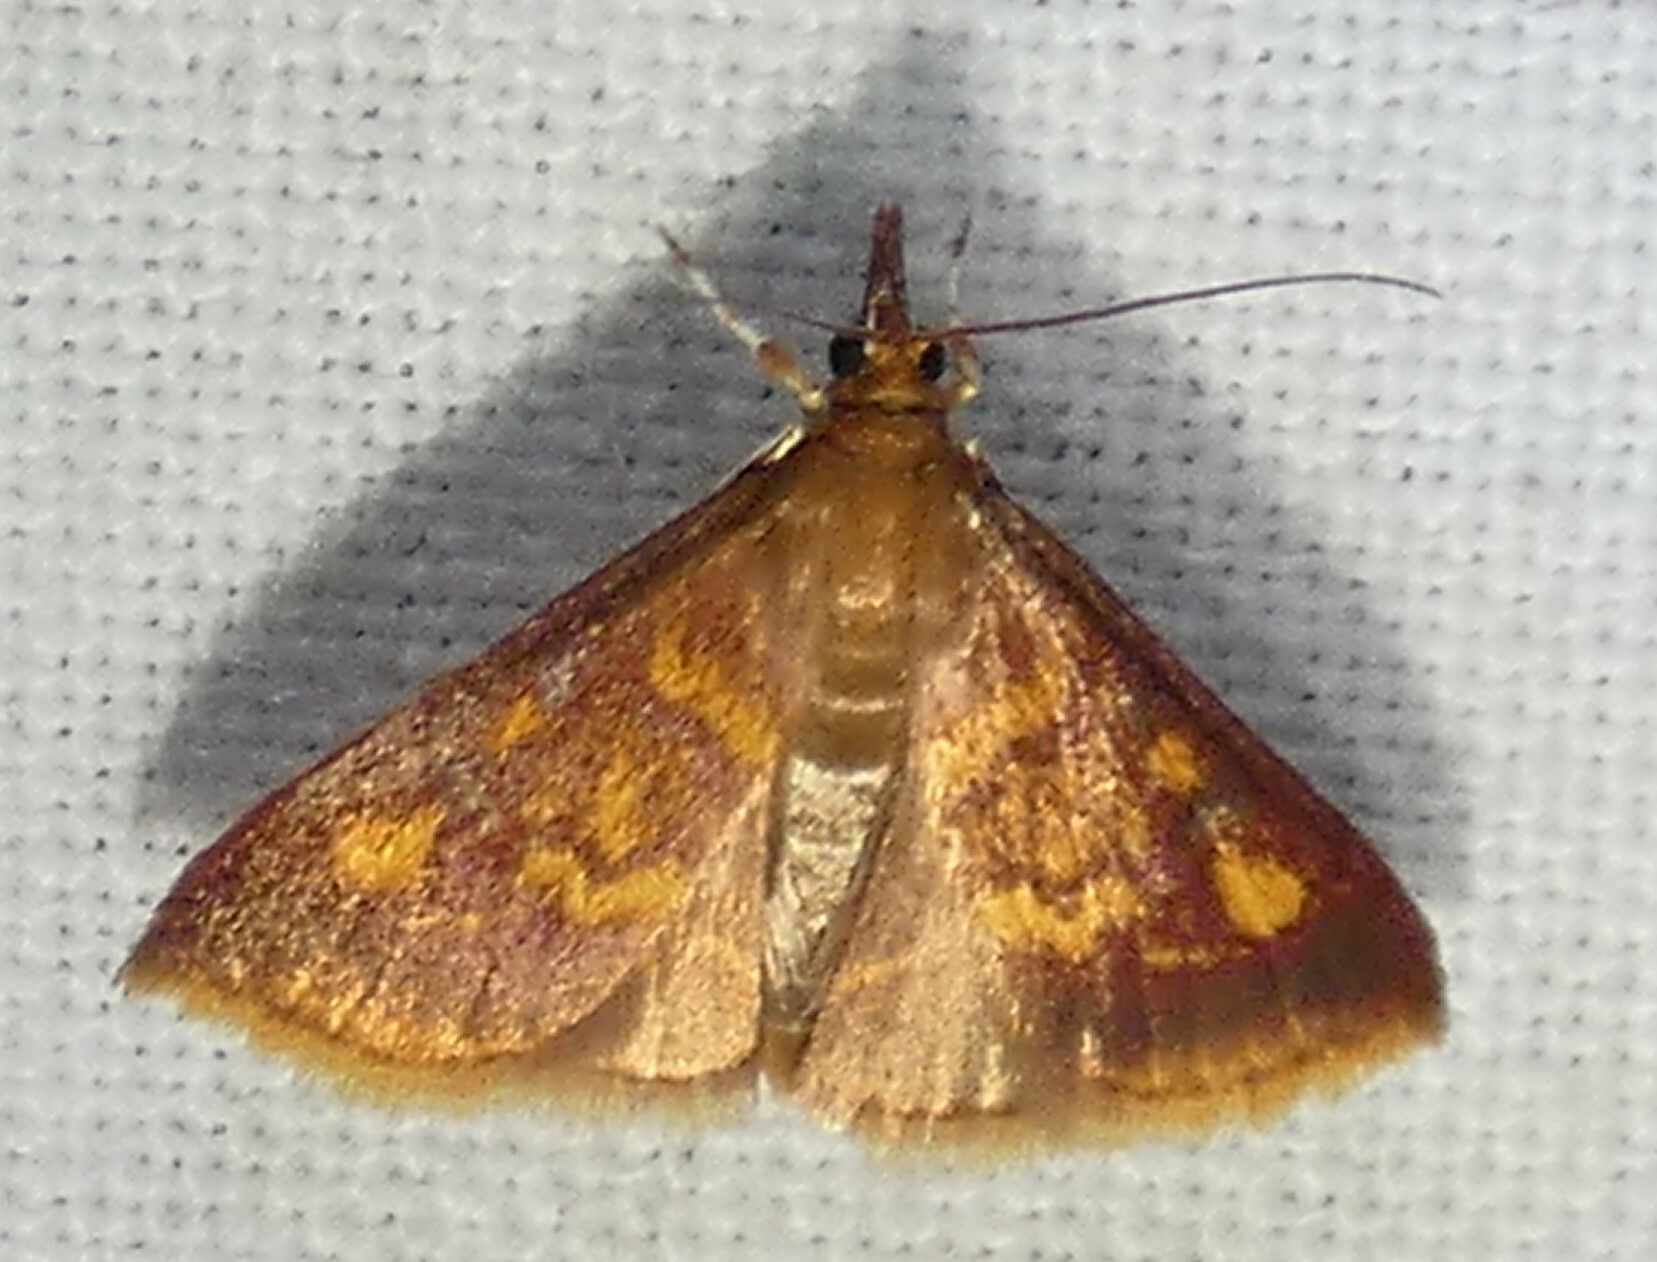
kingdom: Animalia
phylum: Arthropoda
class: Insecta
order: Lepidoptera
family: Crambidae
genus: Pyrausta
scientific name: Pyrausta acrionalis
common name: Mint-loving pyrausta moth
